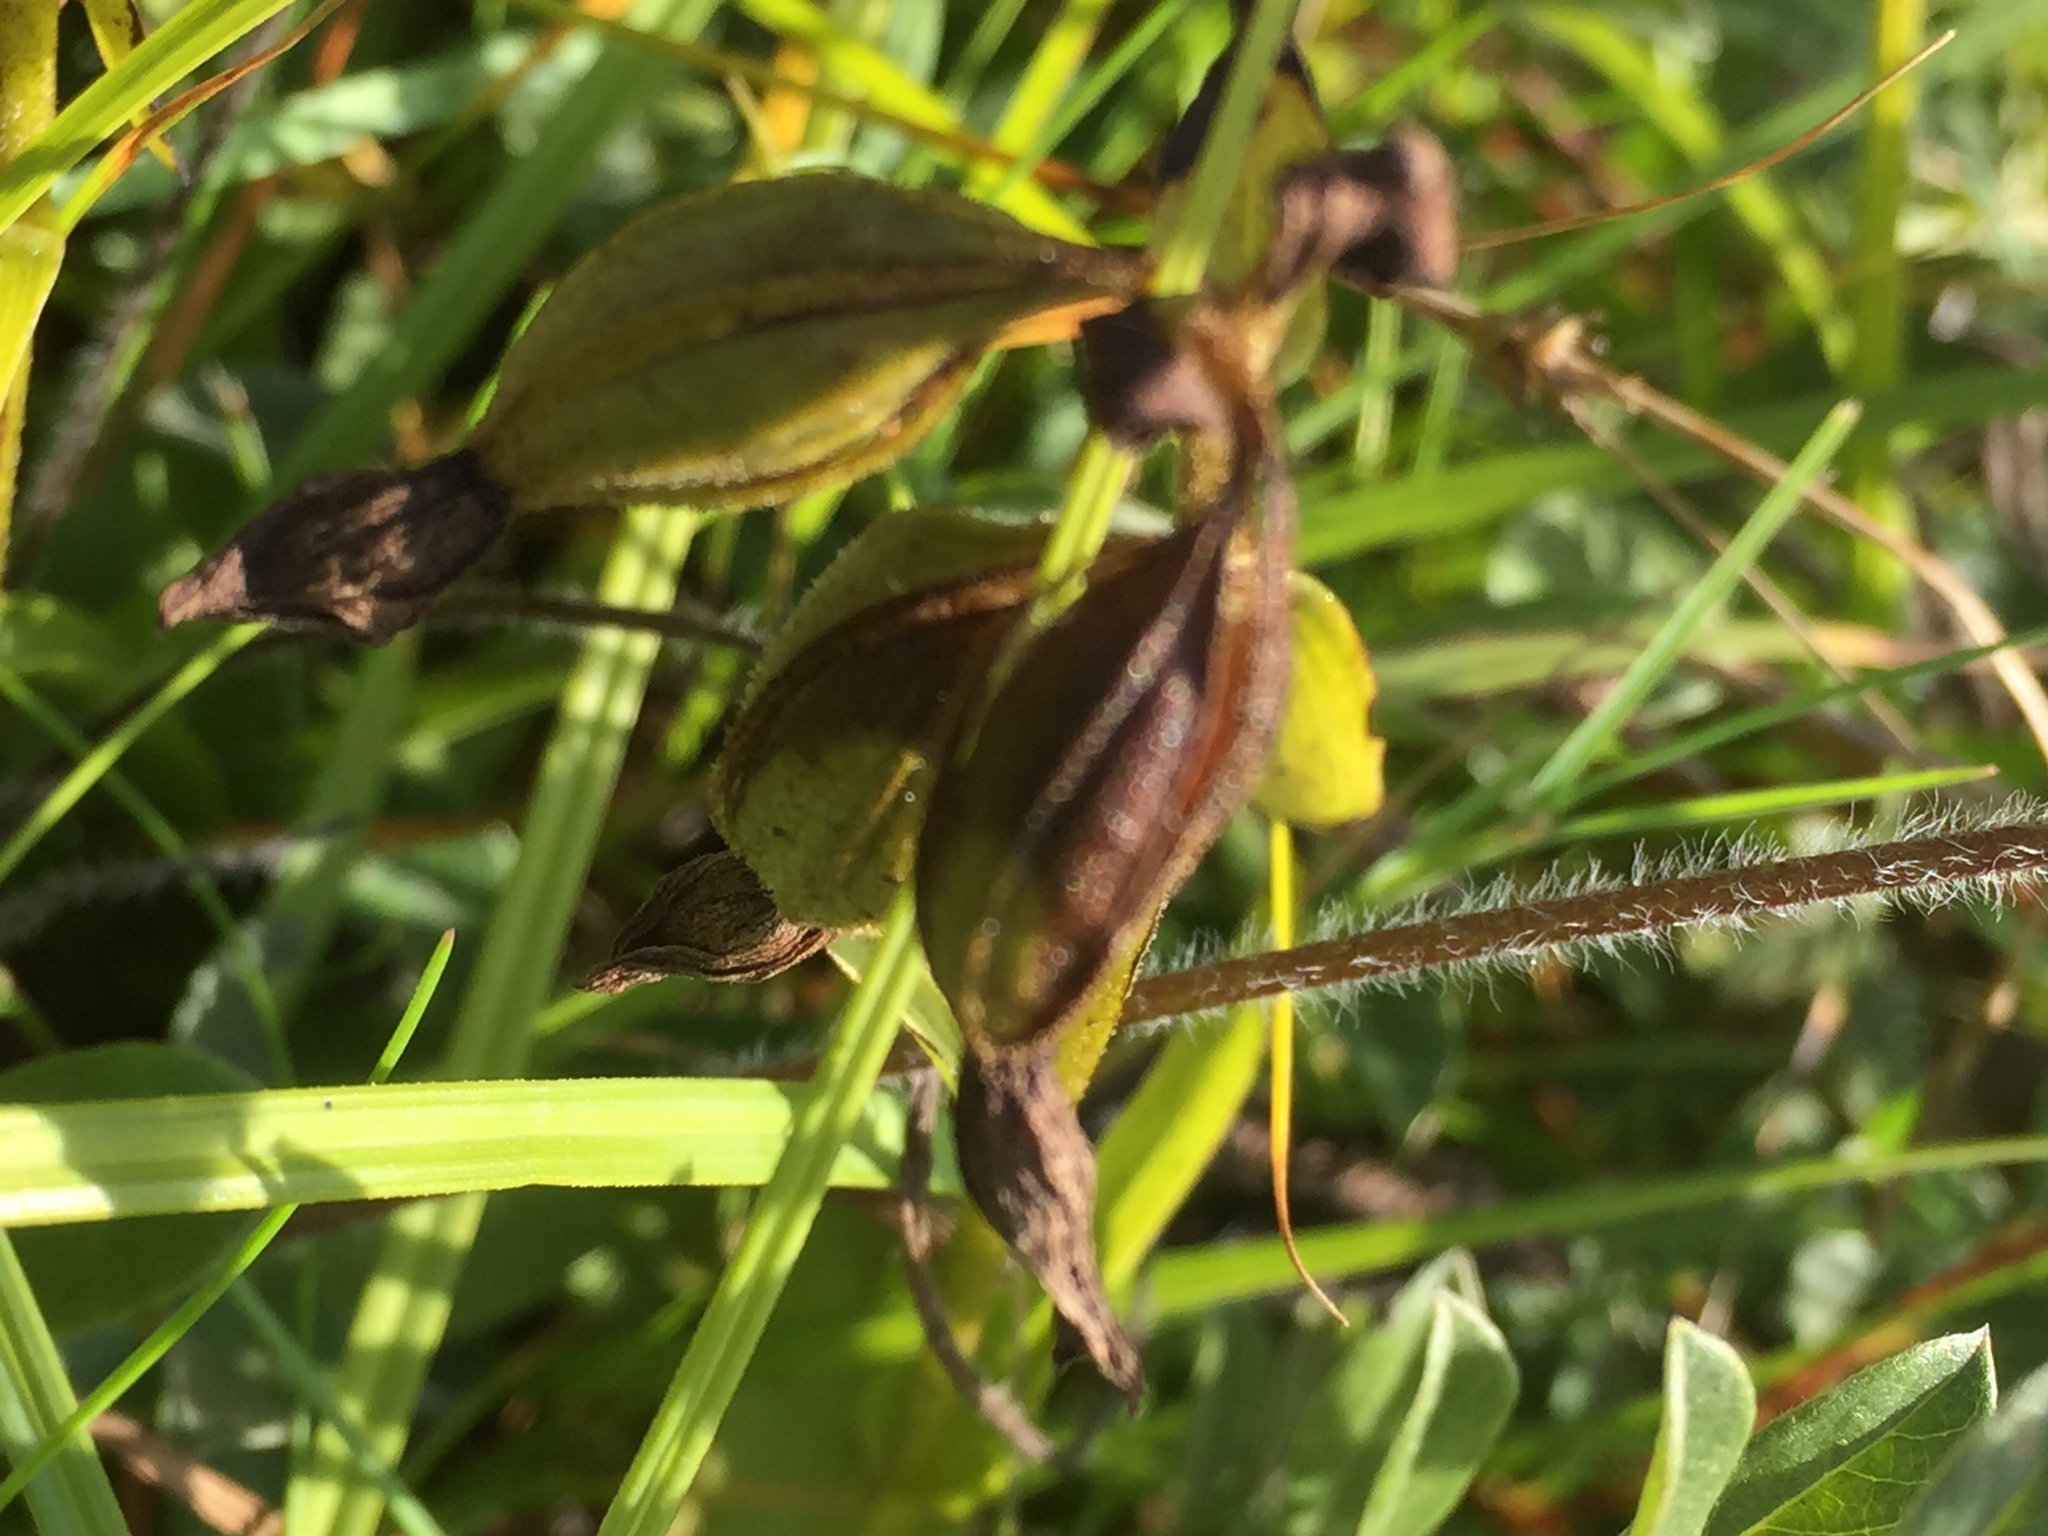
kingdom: Plantae
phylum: Tracheophyta
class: Liliopsida
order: Asparagales
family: Orchidaceae
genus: Epipactis
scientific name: Epipactis palustris
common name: Marsh helleborine
